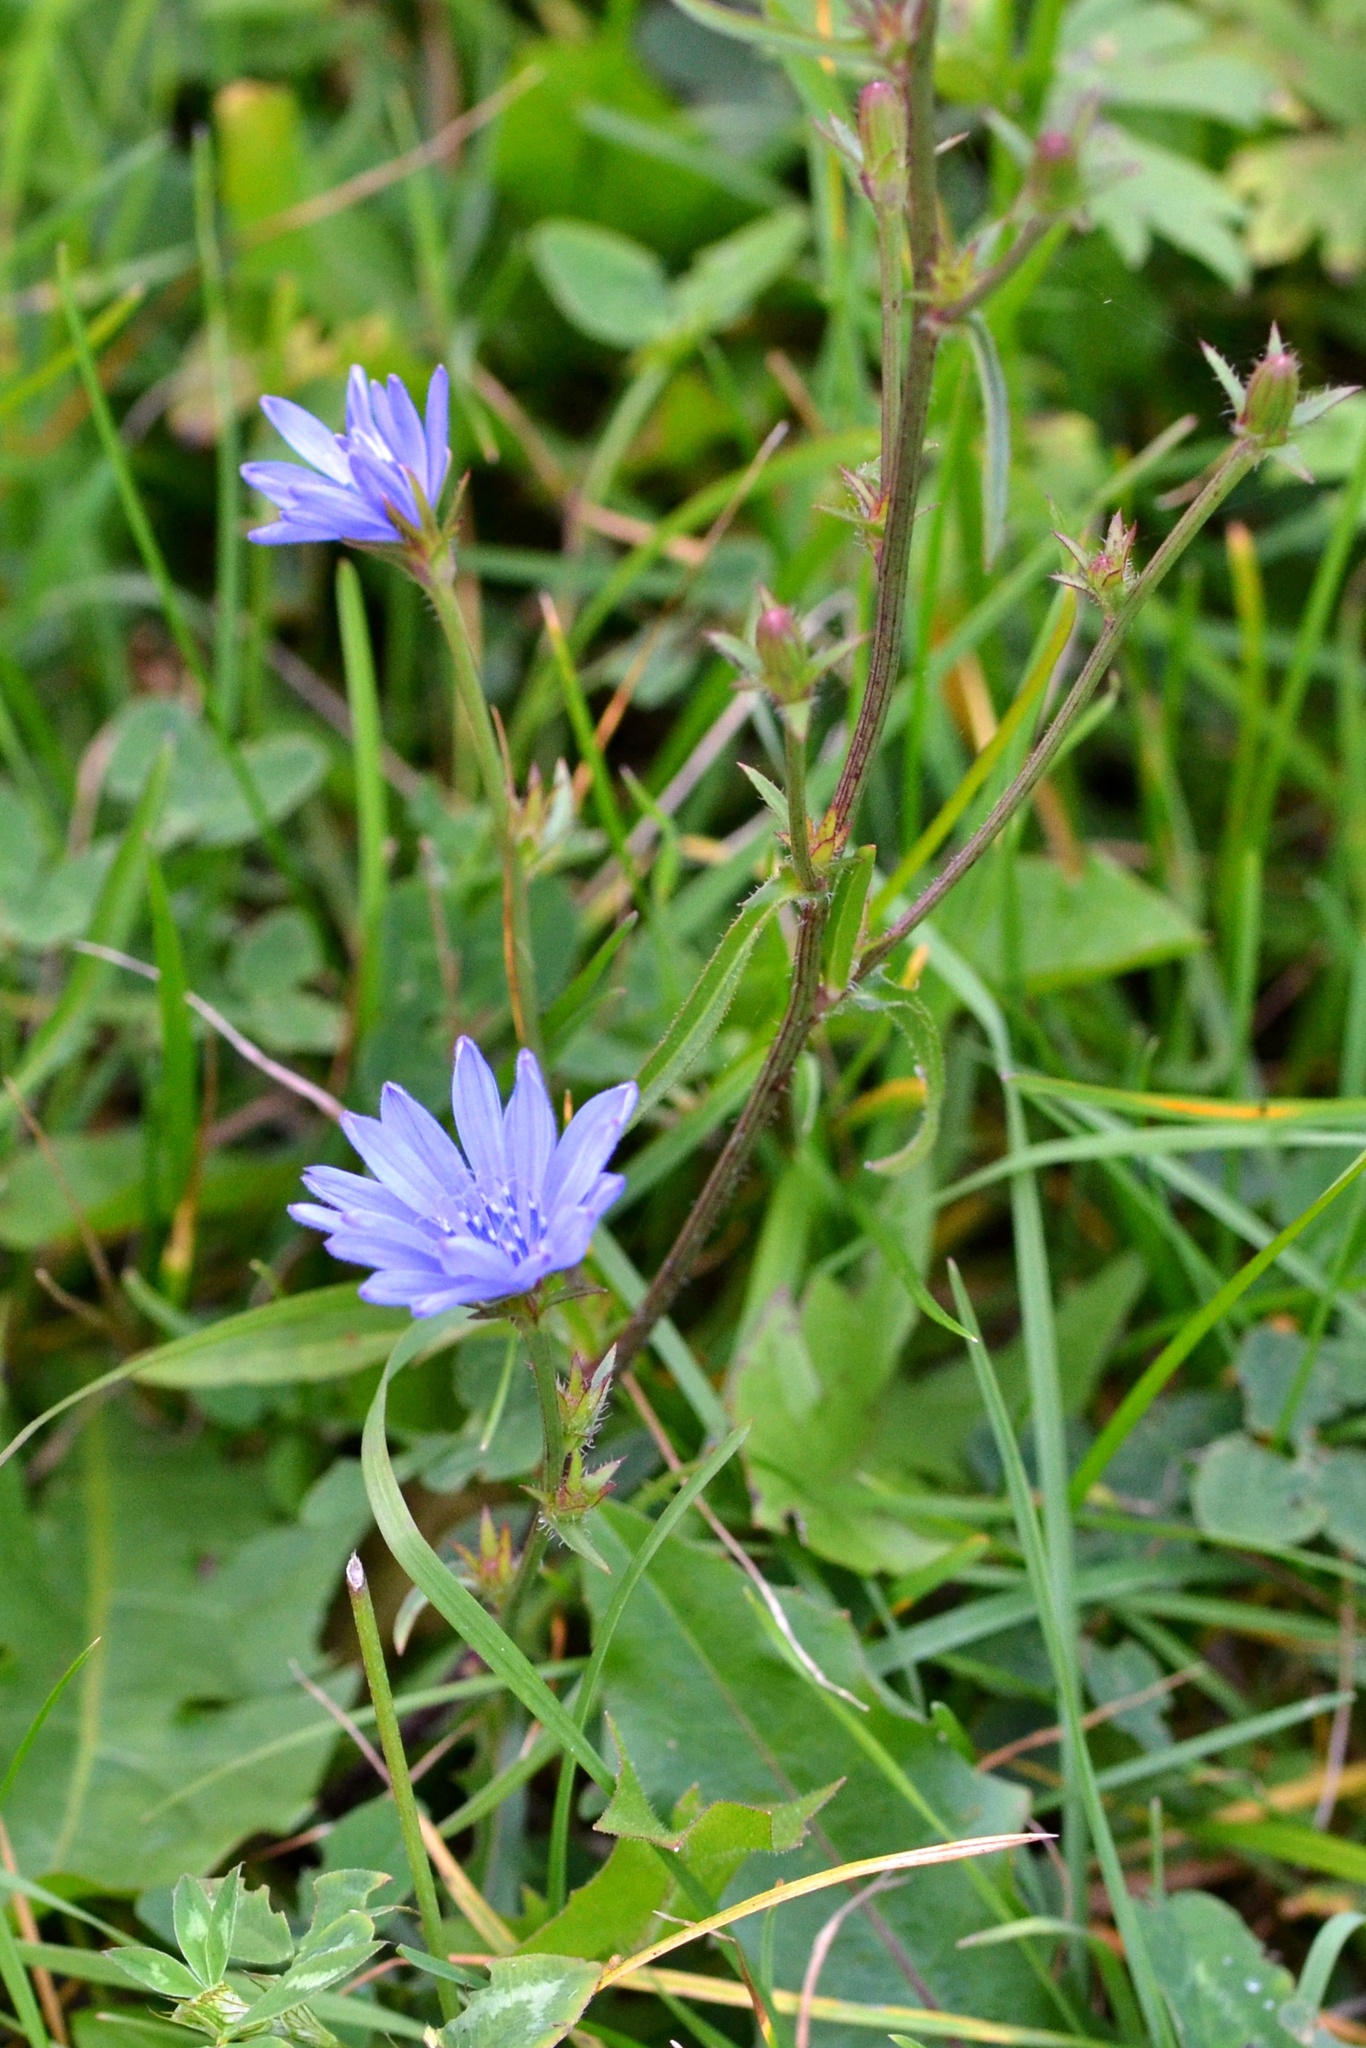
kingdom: Plantae
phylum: Tracheophyta
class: Magnoliopsida
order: Asterales
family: Asteraceae
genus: Cichorium
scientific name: Cichorium intybus
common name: Chicory
